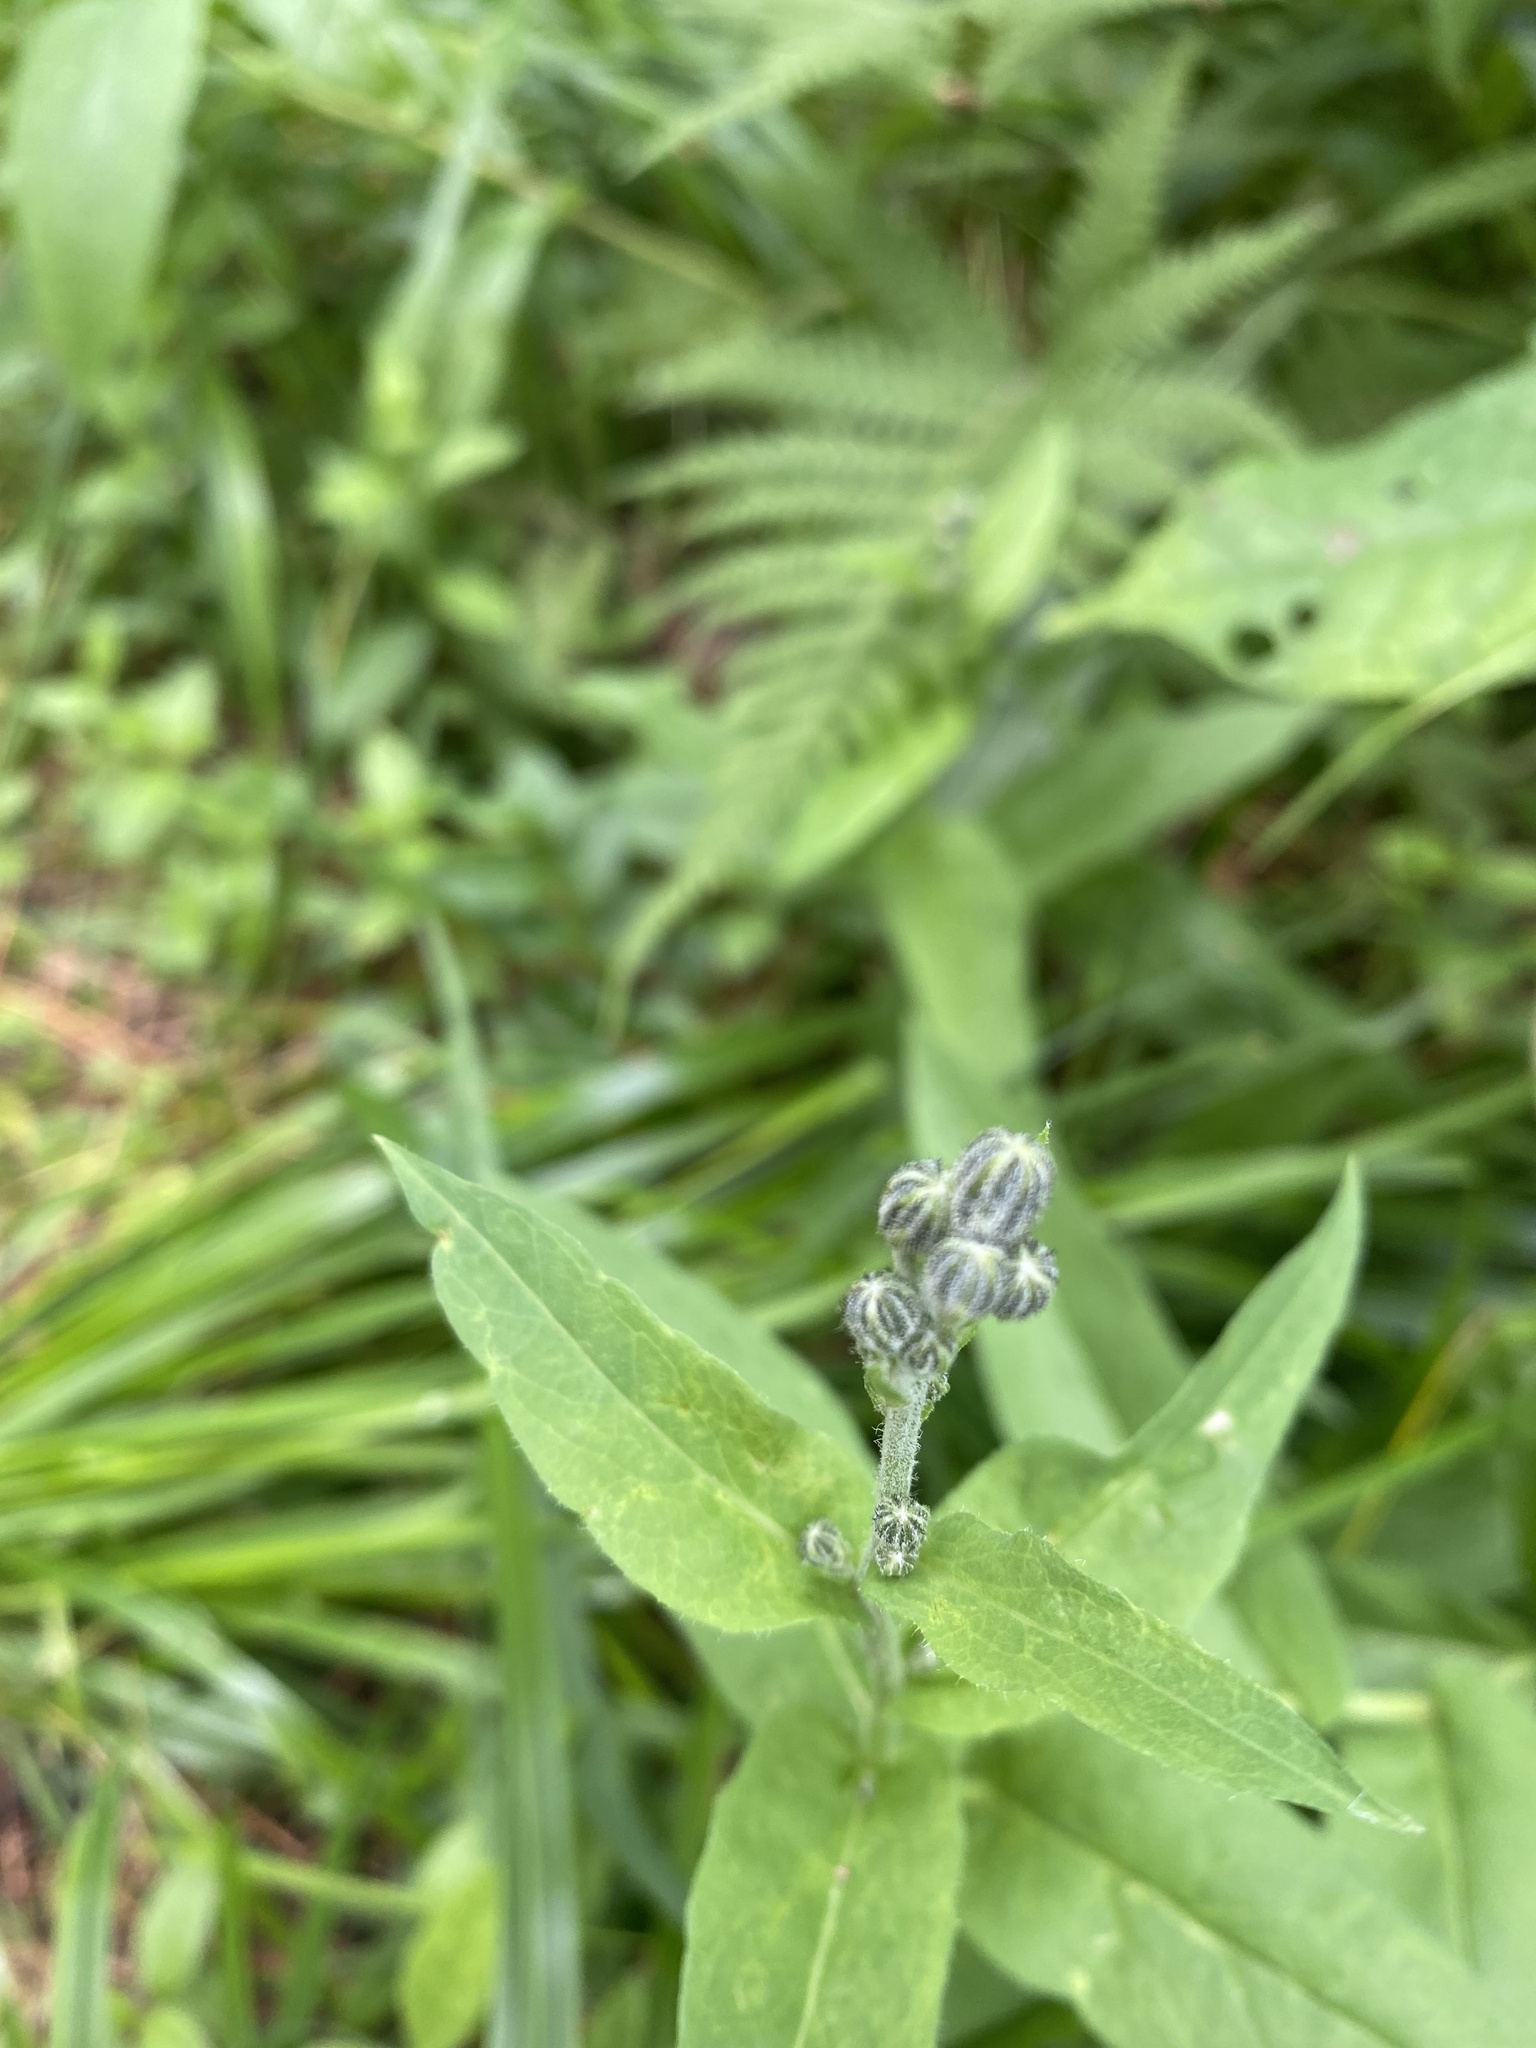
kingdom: Plantae
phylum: Tracheophyta
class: Magnoliopsida
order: Asterales
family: Asteraceae
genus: Hieracium
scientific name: Hieracium krylovii
